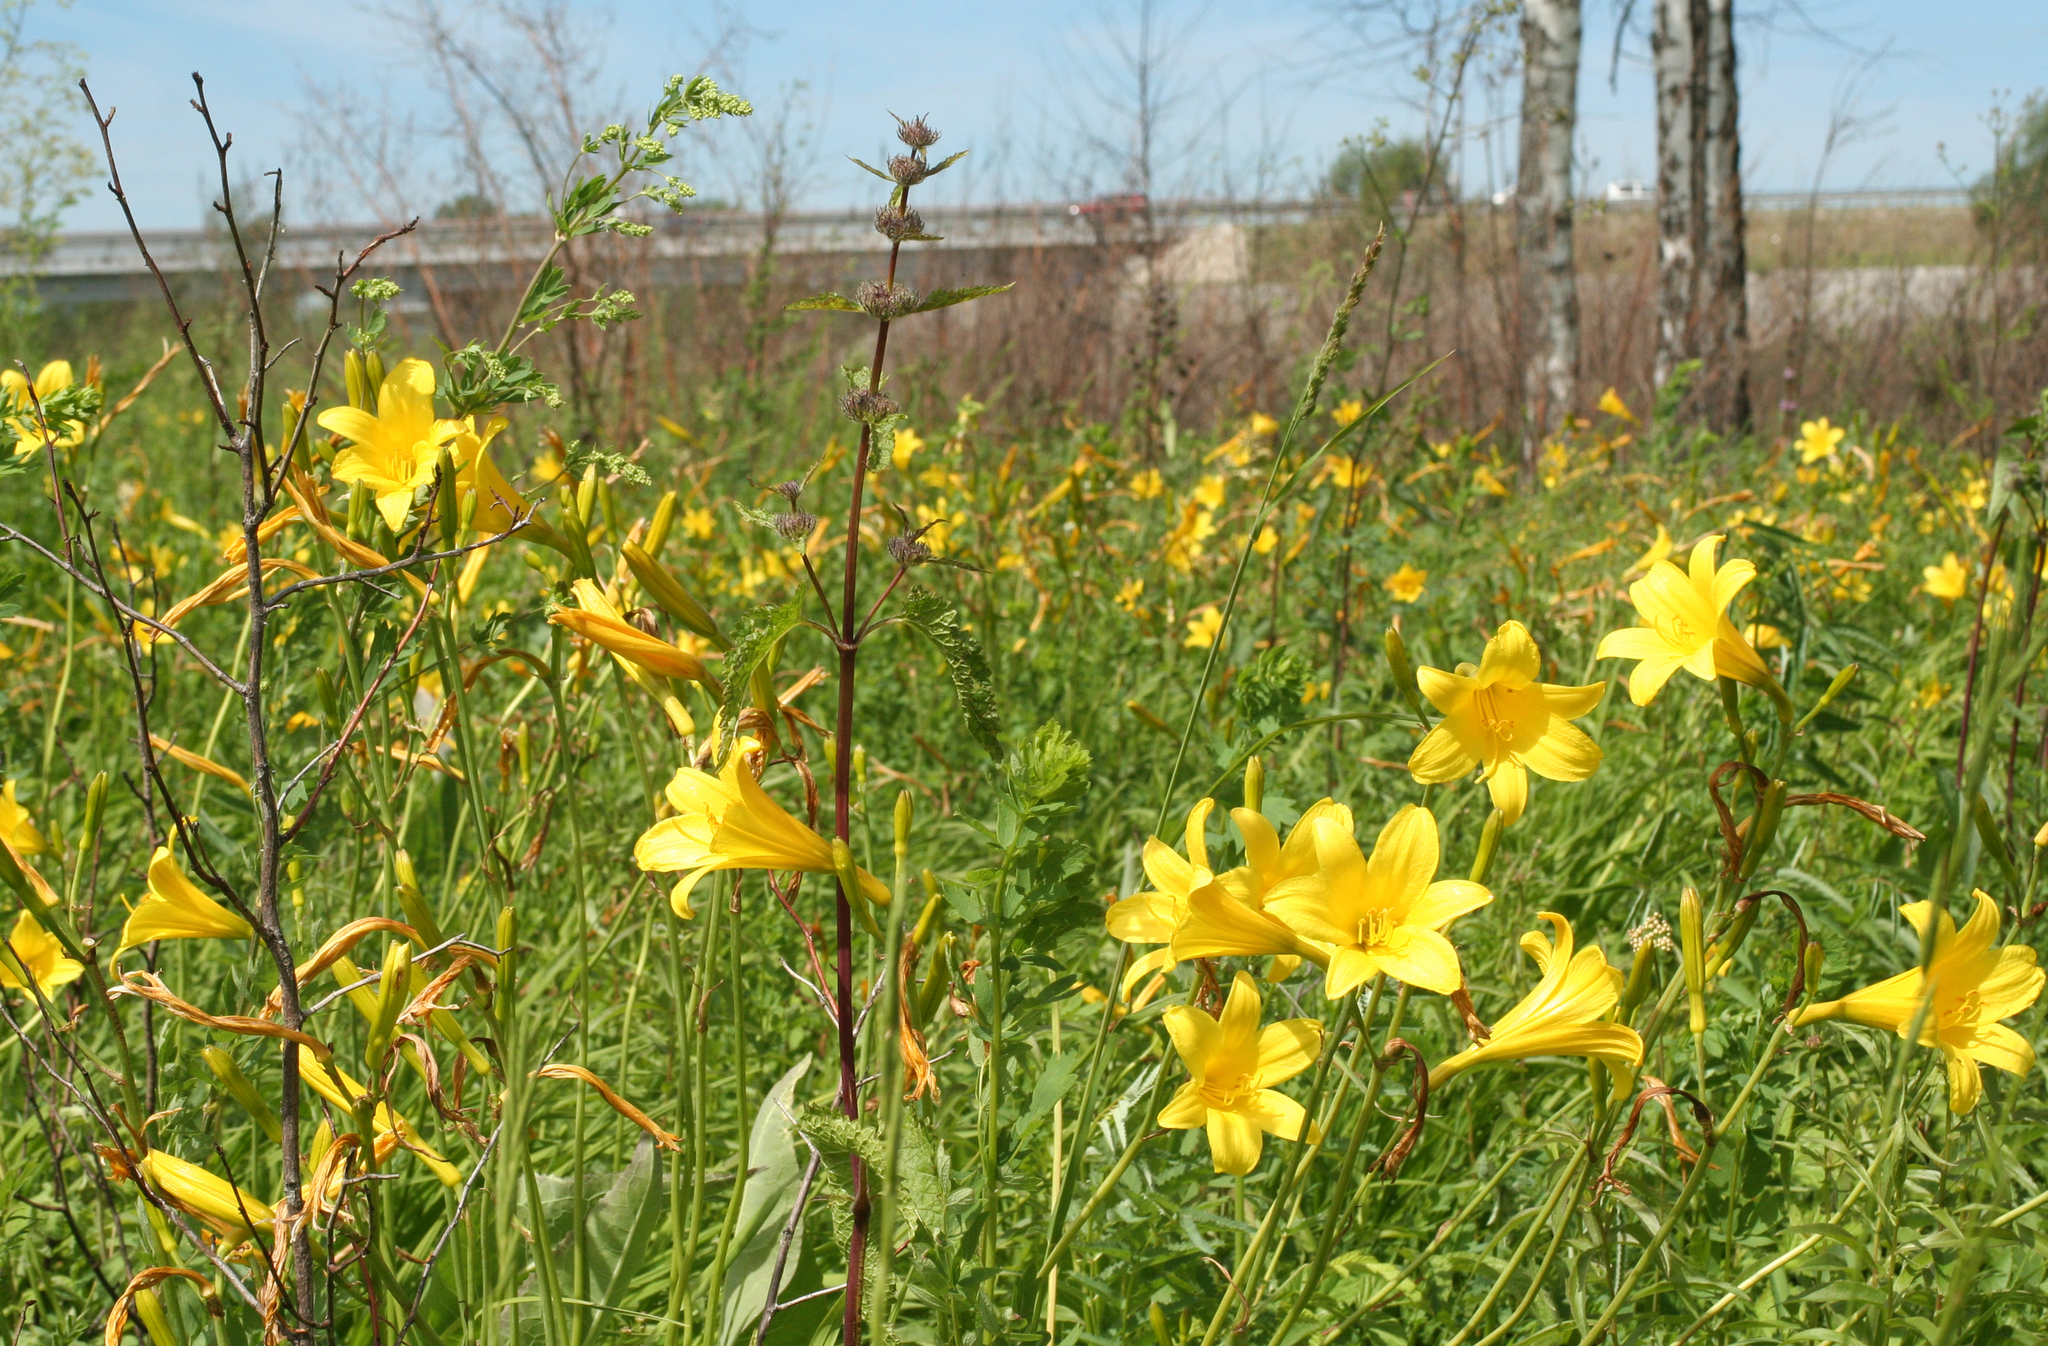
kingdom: Plantae
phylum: Tracheophyta
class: Liliopsida
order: Asparagales
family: Asphodelaceae
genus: Hemerocallis
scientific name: Hemerocallis minor
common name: Small daylily
